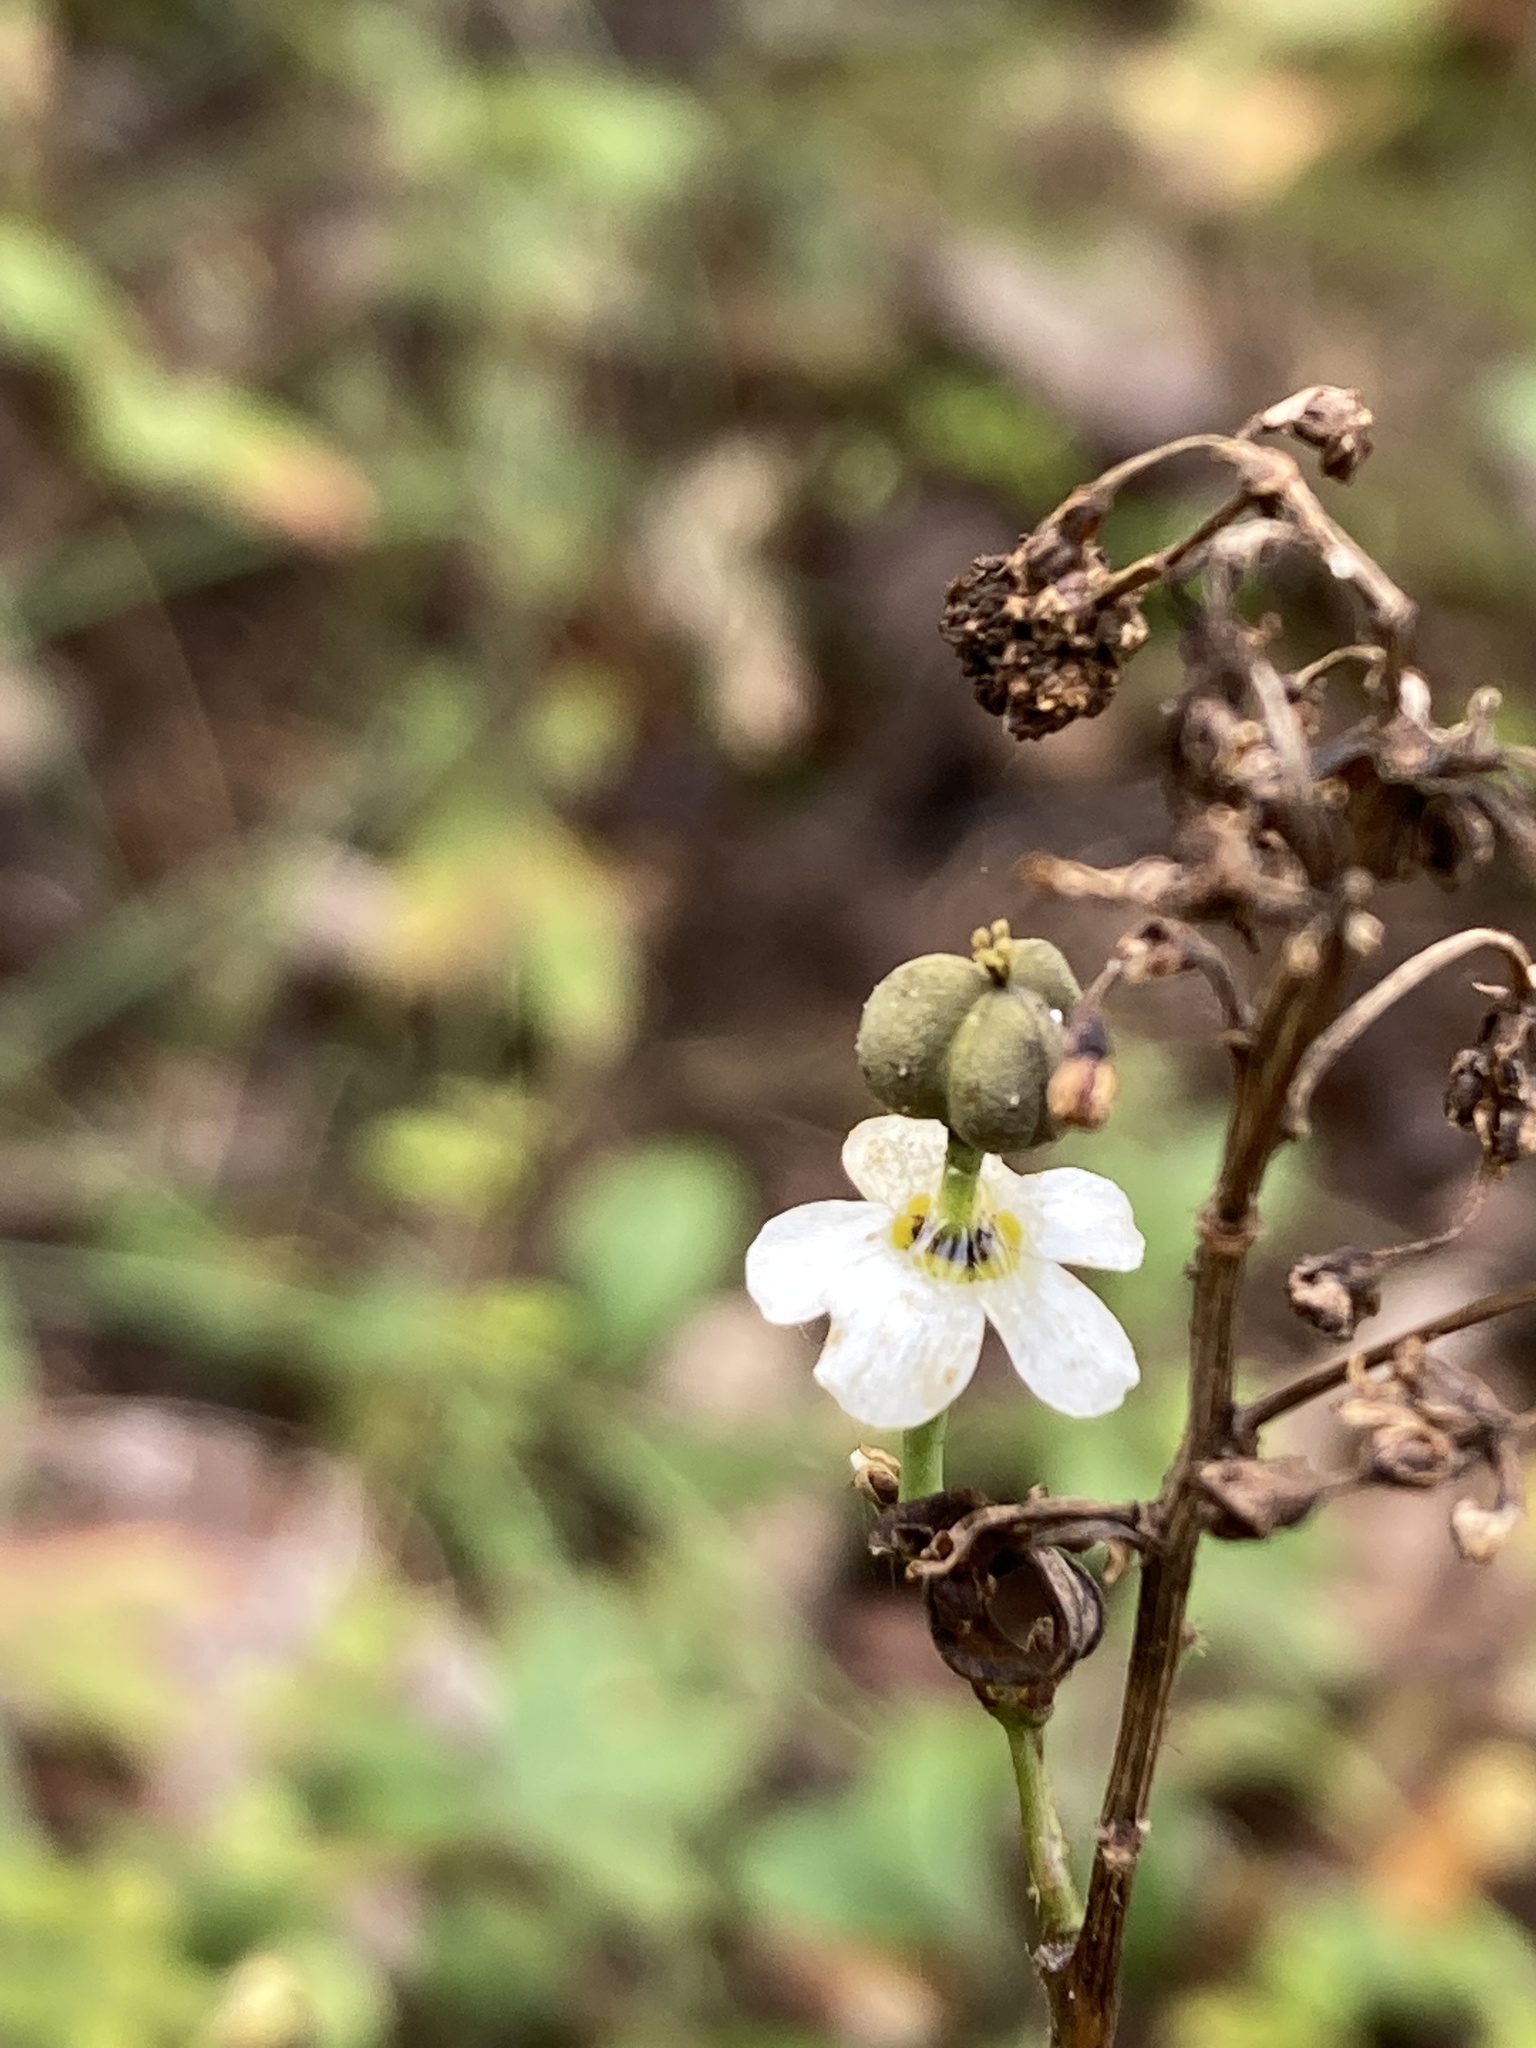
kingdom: Plantae
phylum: Tracheophyta
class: Magnoliopsida
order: Malpighiales
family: Euphorbiaceae
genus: Euphorbia
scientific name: Euphorbia corollata
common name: Flowering spurge
